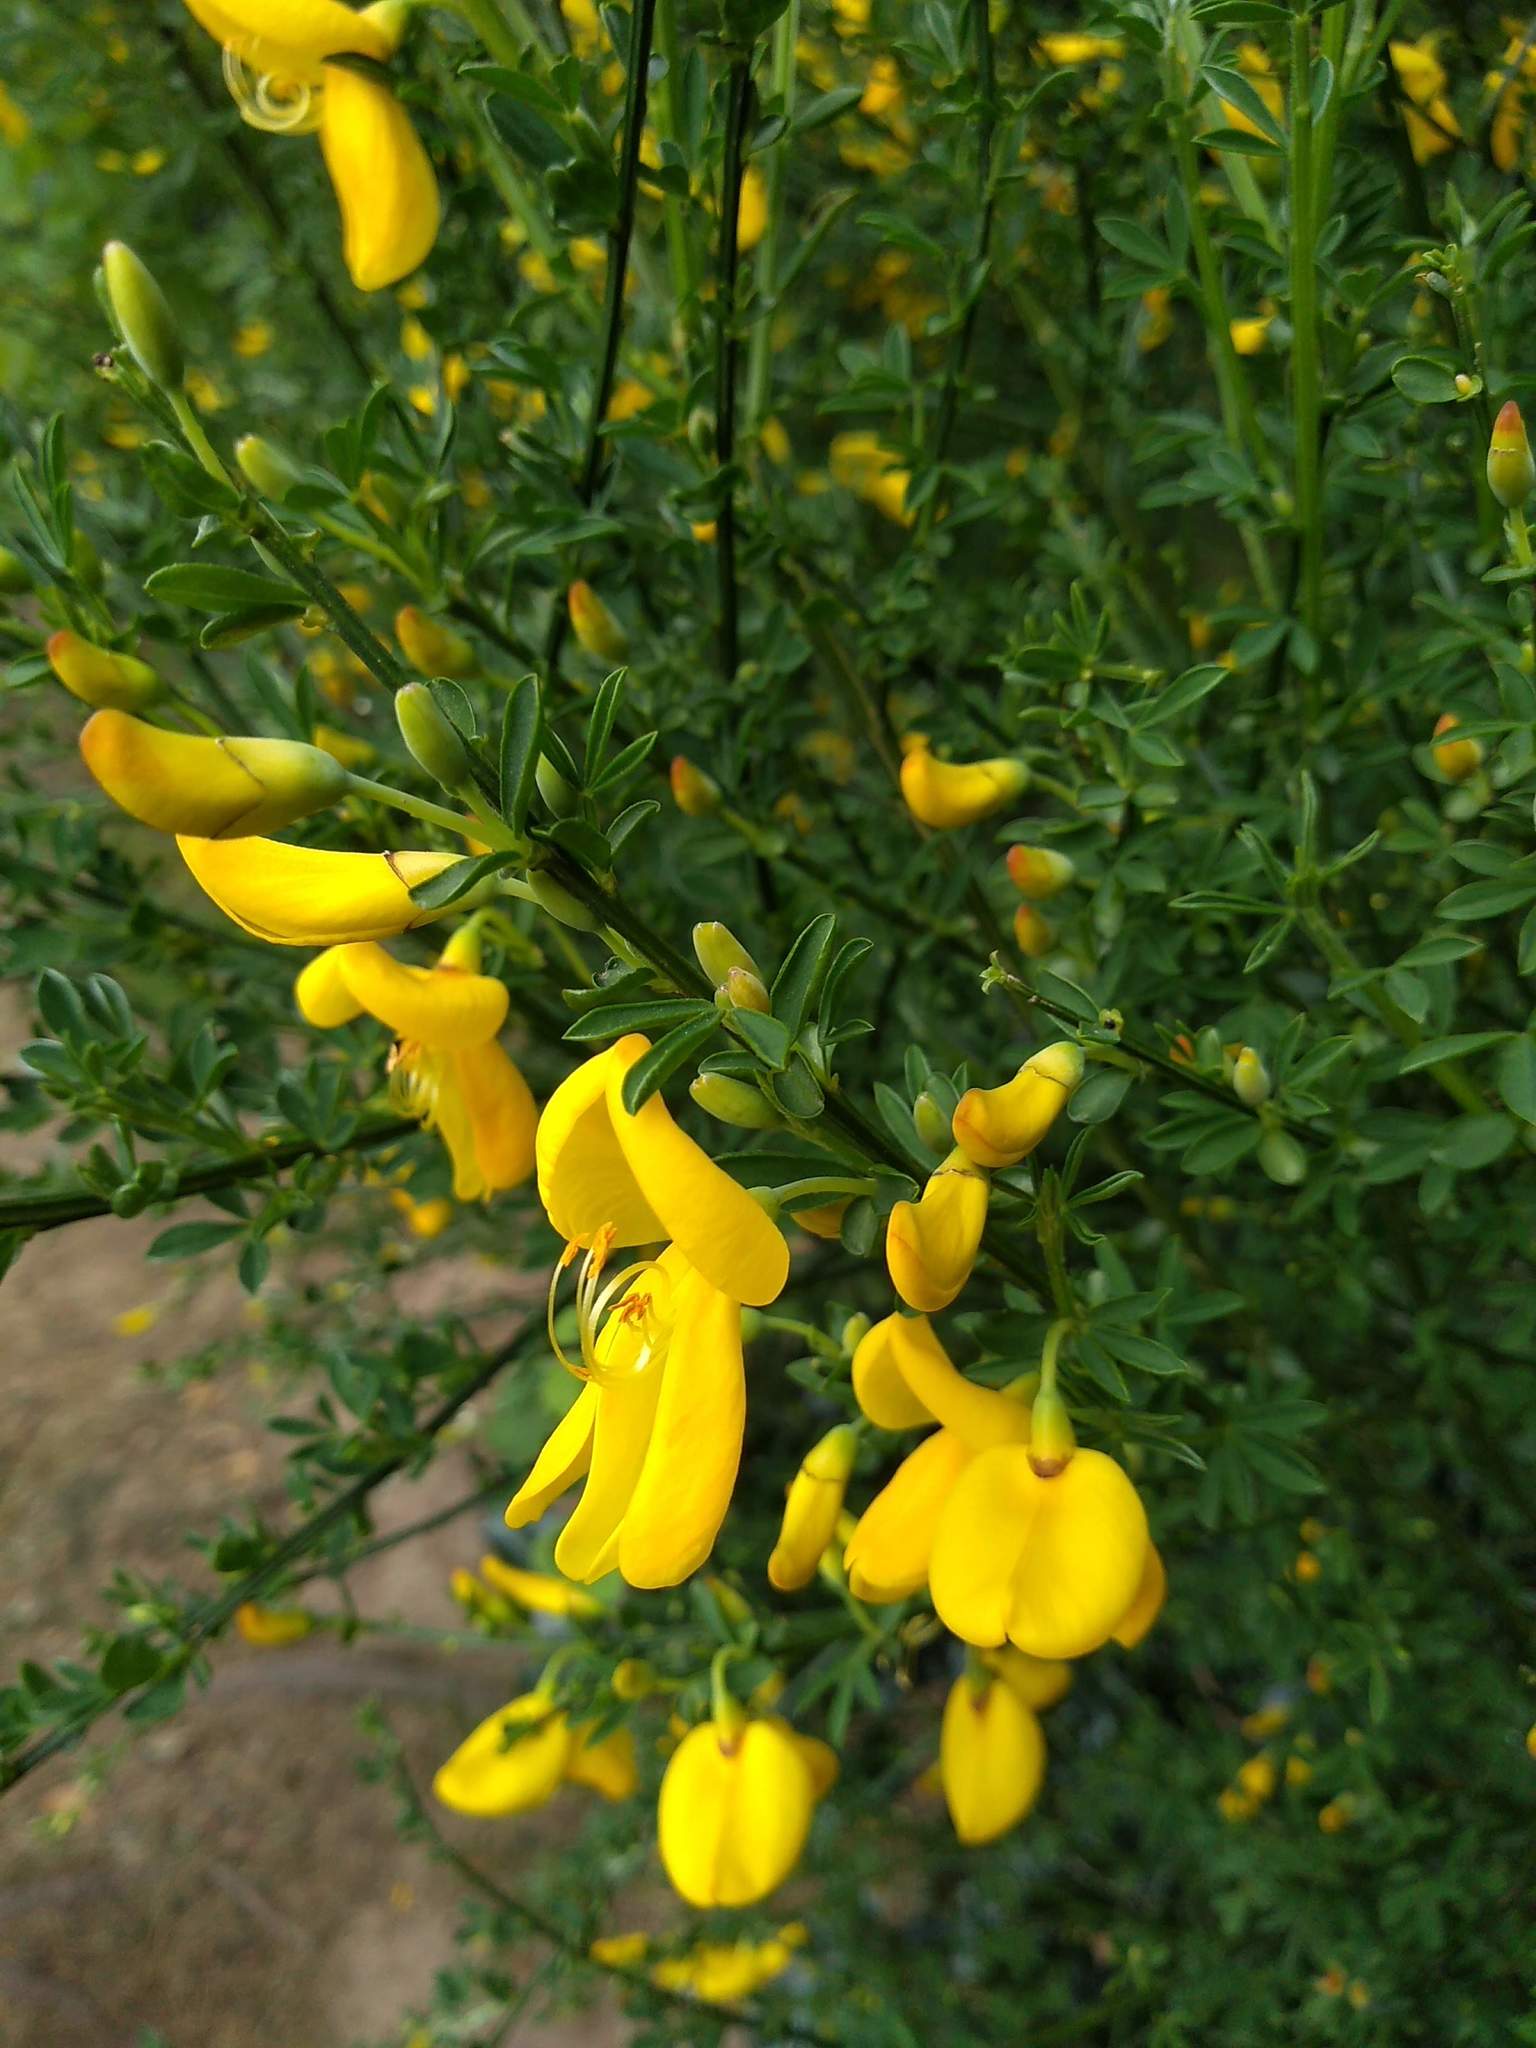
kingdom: Plantae
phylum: Tracheophyta
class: Magnoliopsida
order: Fabales
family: Fabaceae
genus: Cytisus
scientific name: Cytisus scoparius
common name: Scotch broom
